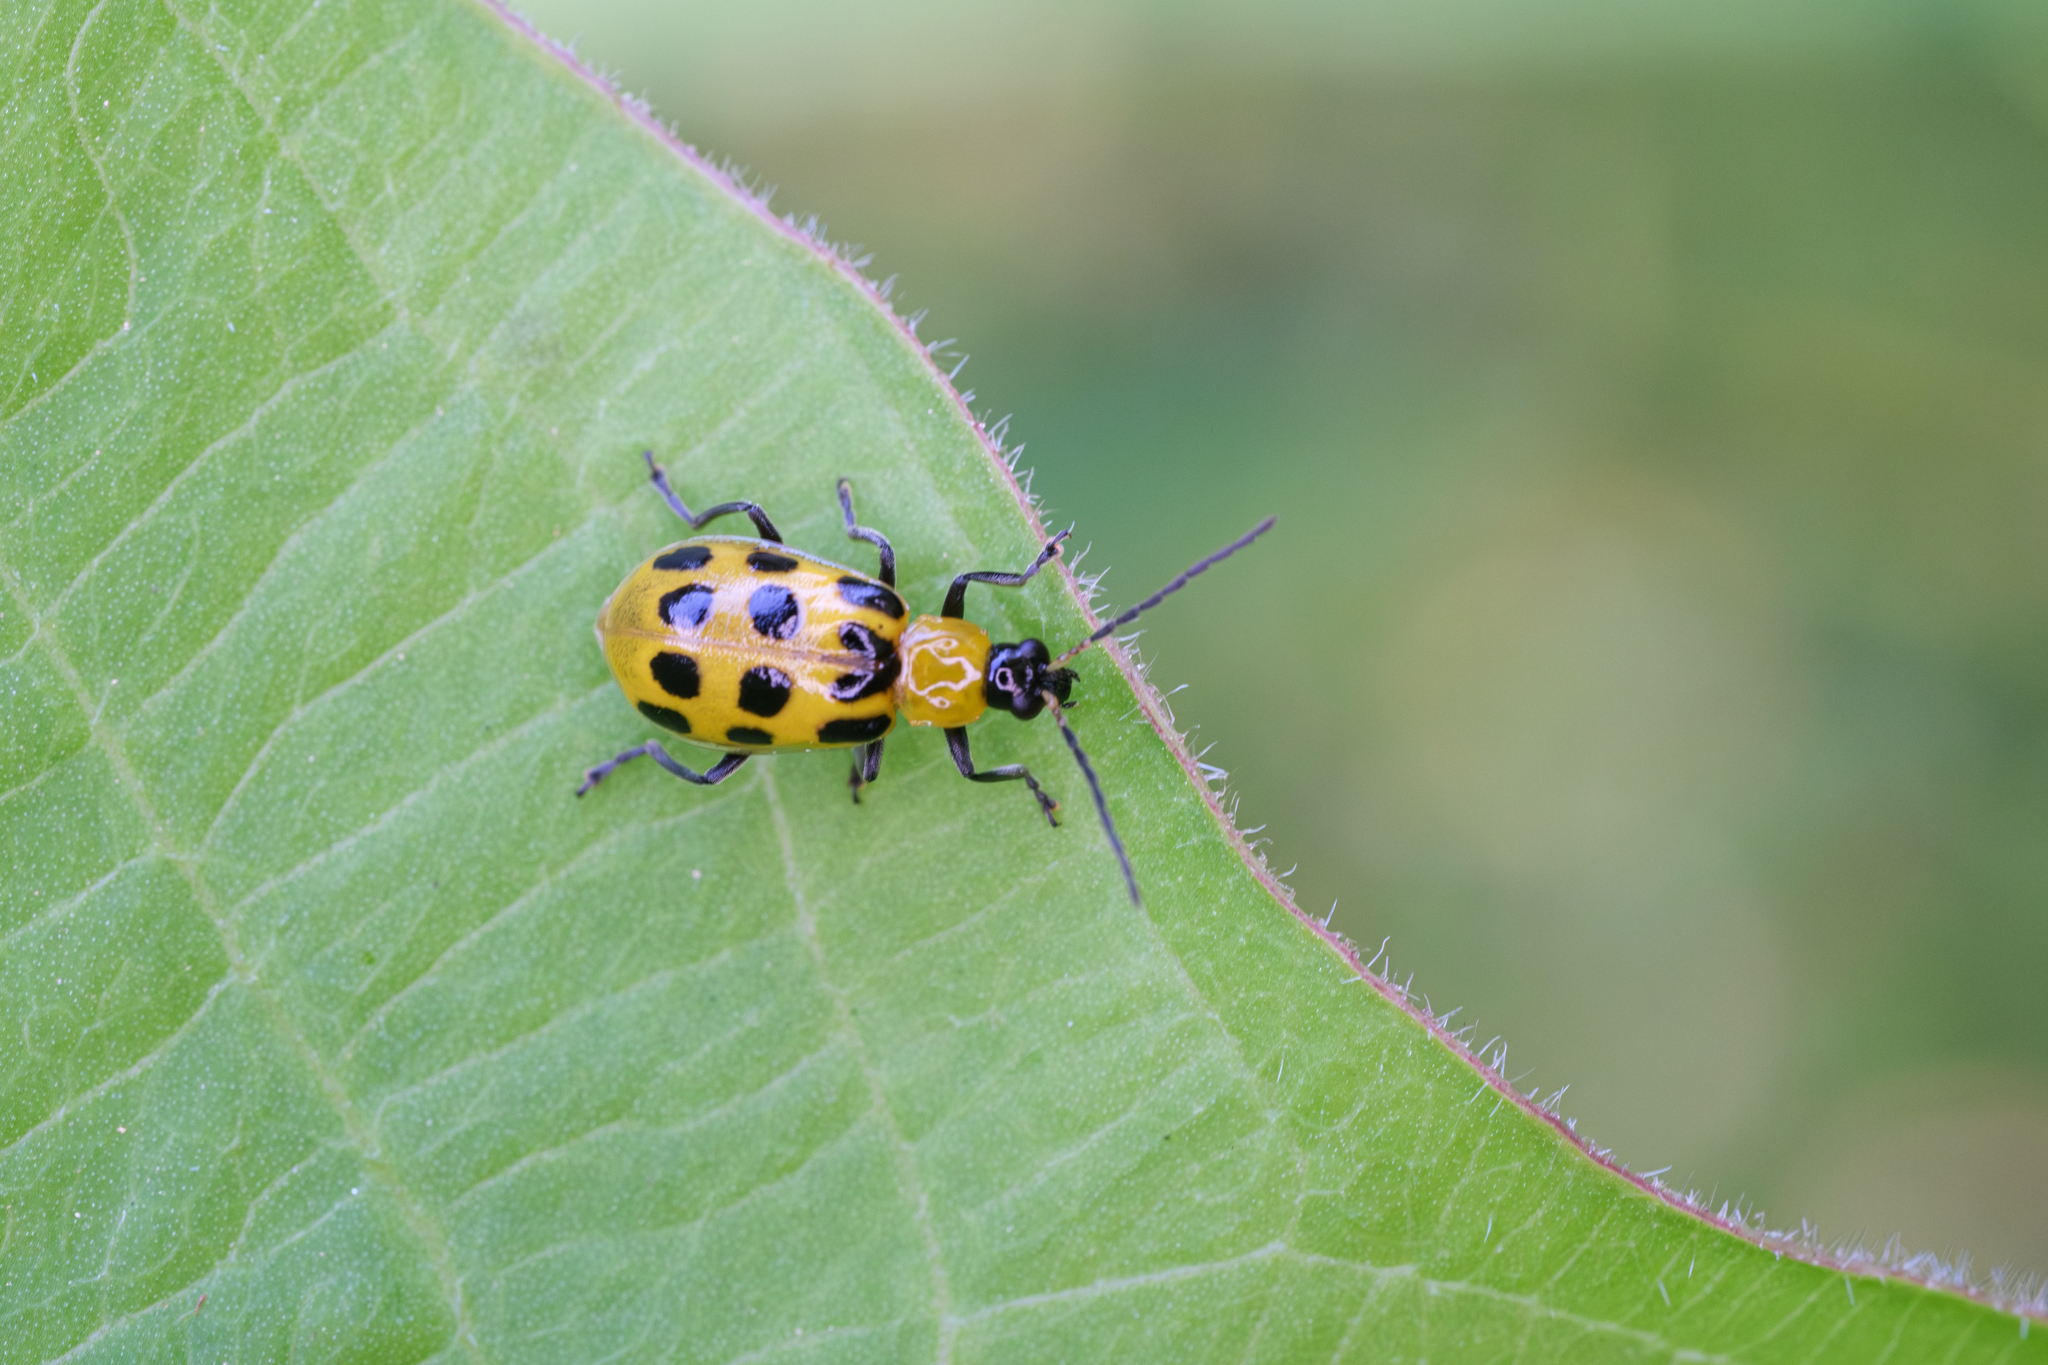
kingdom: Animalia
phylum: Arthropoda
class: Insecta
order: Coleoptera
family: Chrysomelidae
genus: Diabrotica
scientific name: Diabrotica undecimpunctata
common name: Spotted cucumber beetle
